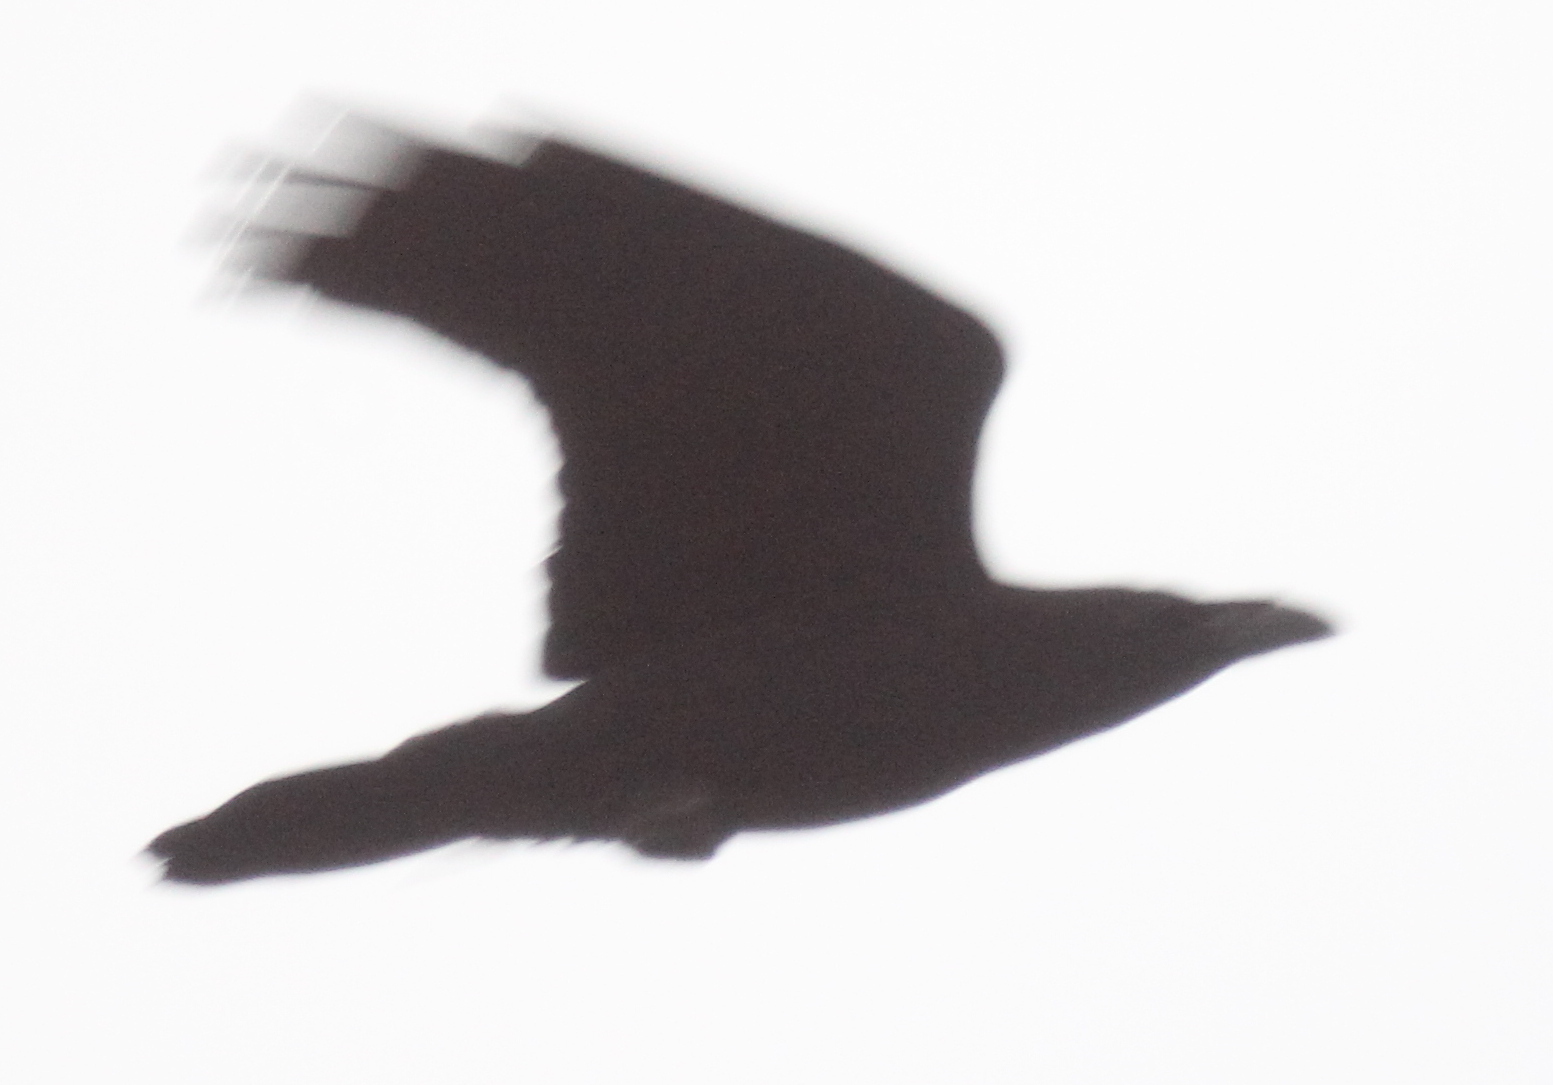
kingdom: Animalia
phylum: Chordata
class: Aves
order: Passeriformes
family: Corvidae
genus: Corvus
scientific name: Corvus corax
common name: Common raven
